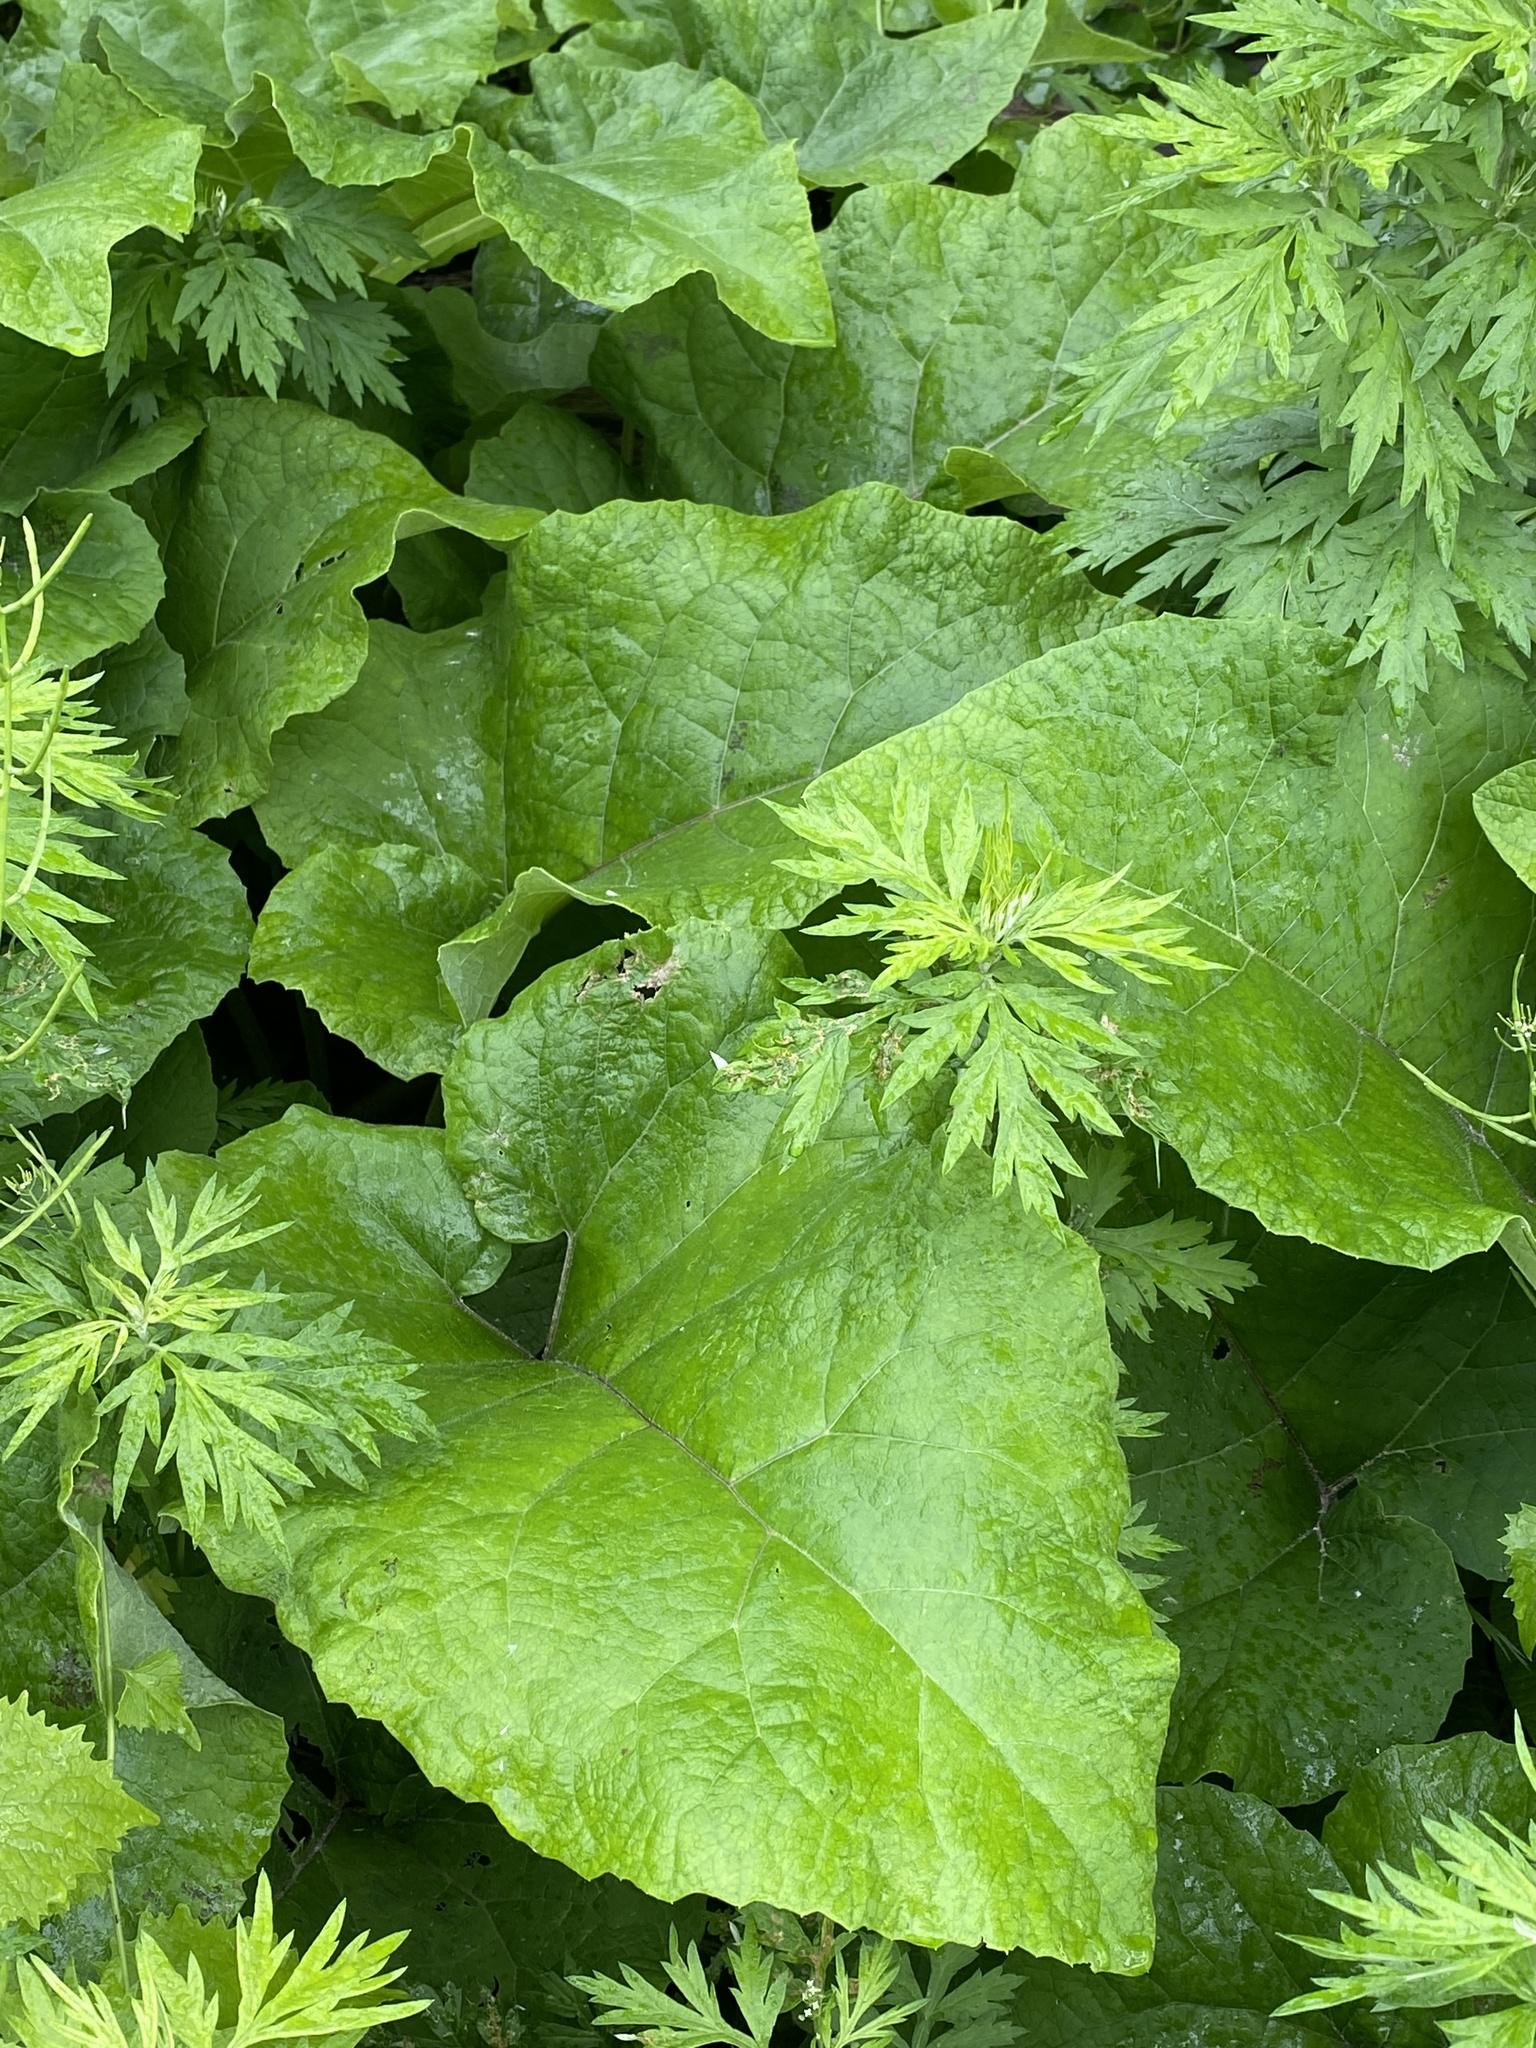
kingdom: Plantae
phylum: Tracheophyta
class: Magnoliopsida
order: Asterales
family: Asteraceae
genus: Arctium
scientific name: Arctium minus
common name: Lesser burdock
